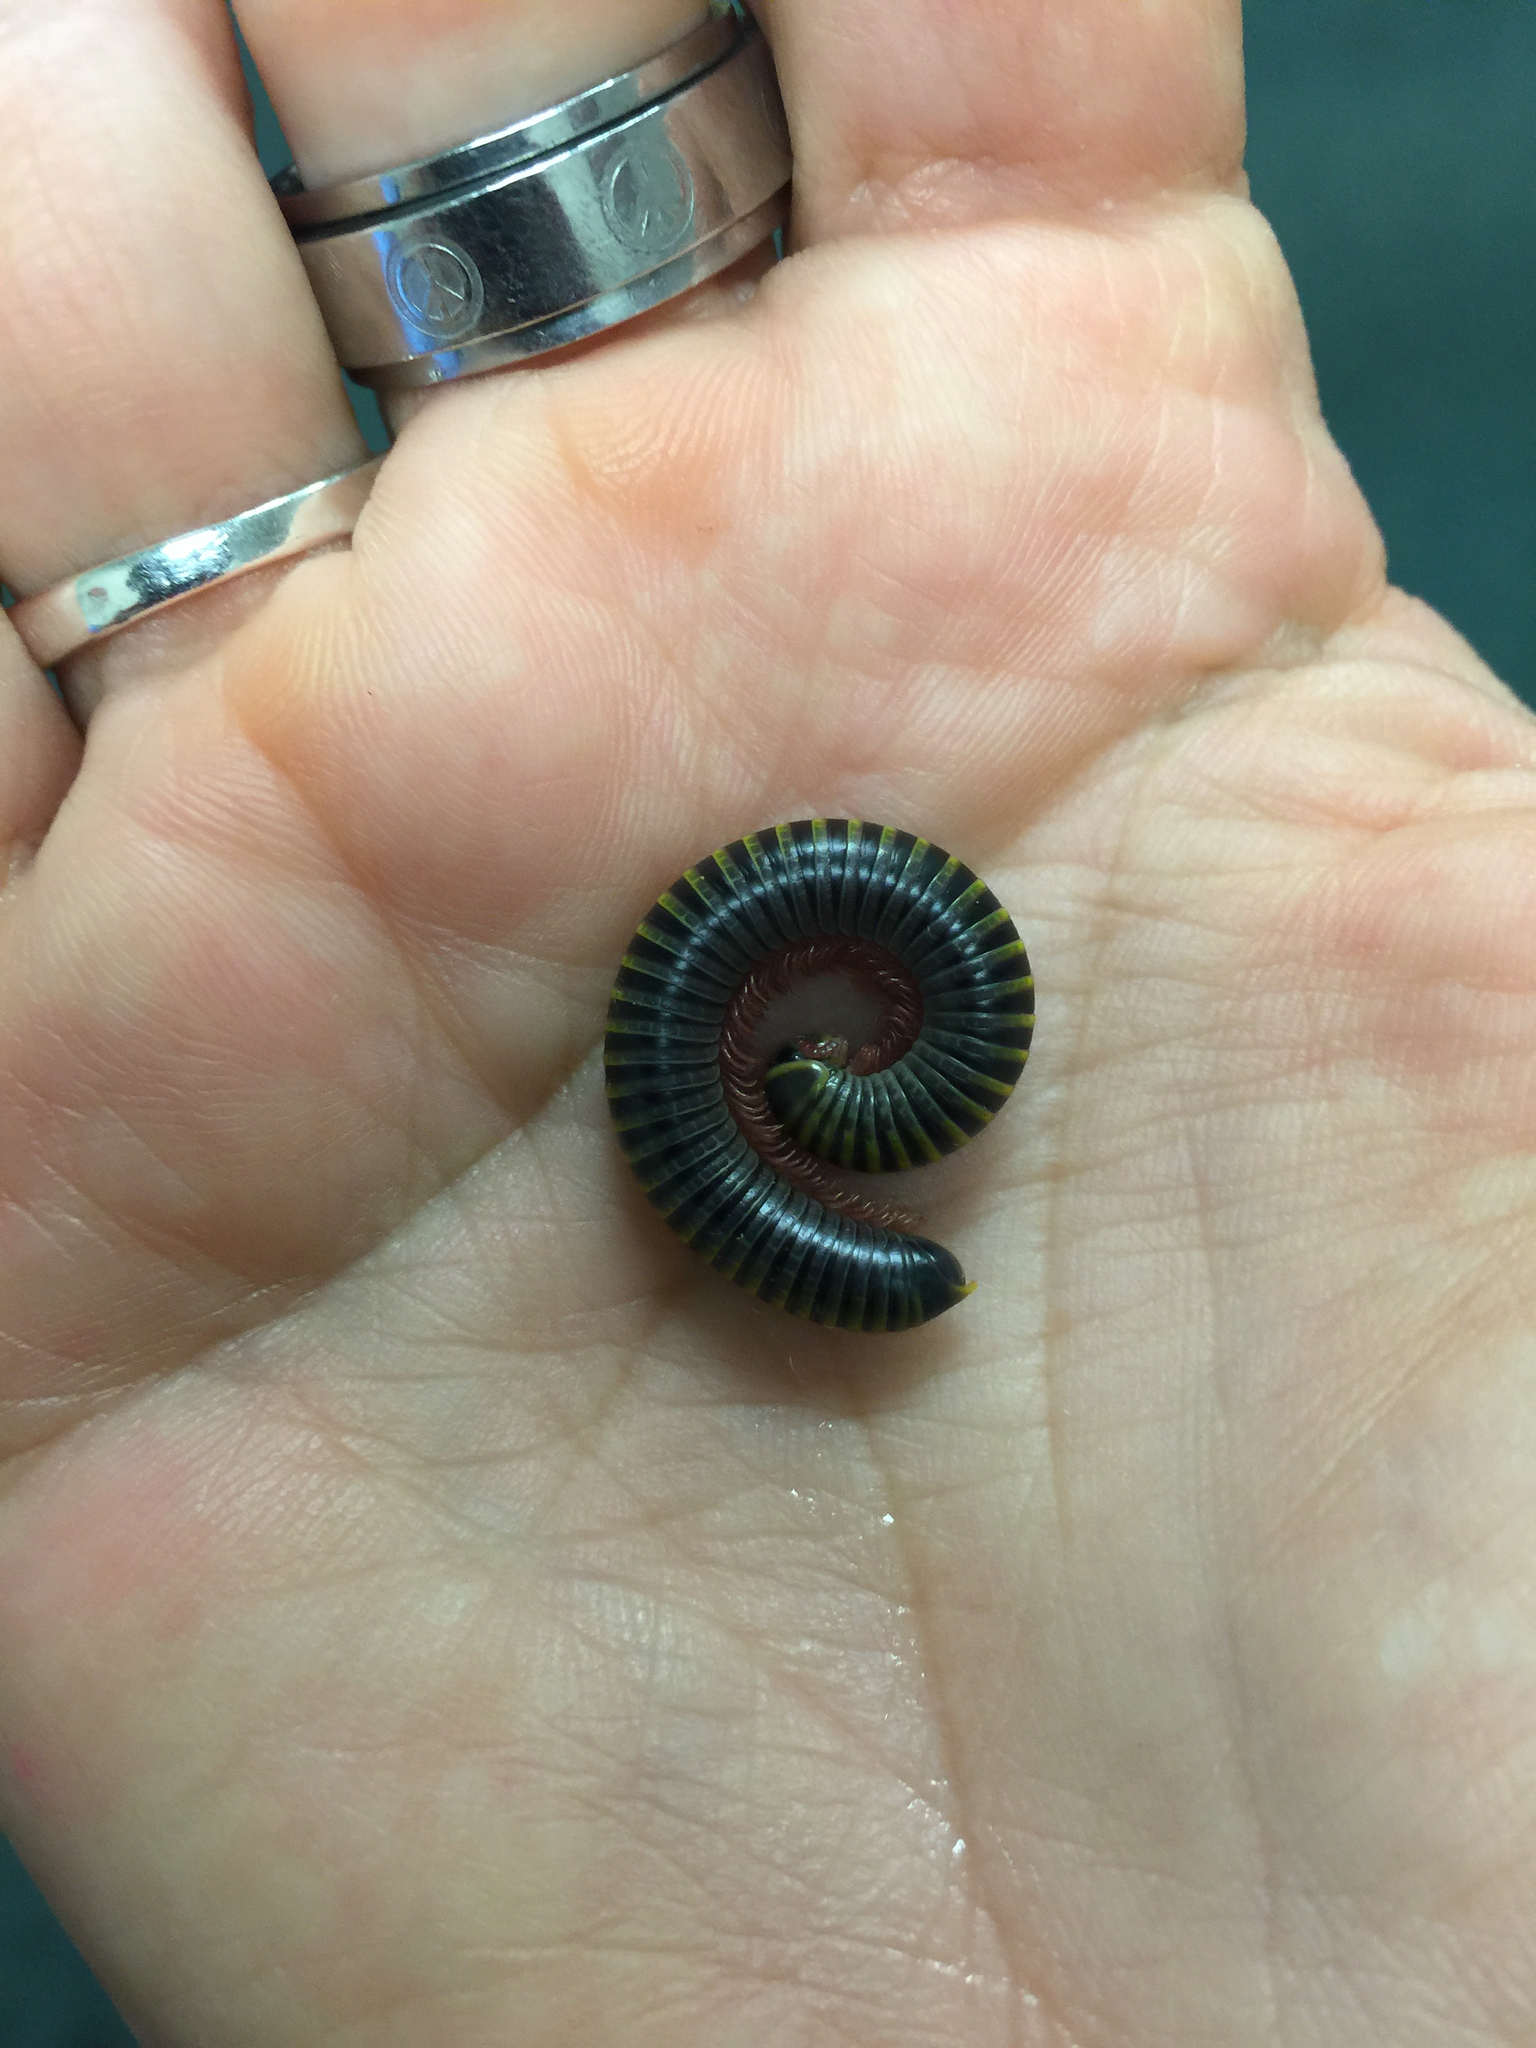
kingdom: Animalia
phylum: Arthropoda
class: Diplopoda
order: Spirobolida
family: Rhinocricidae
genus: Anadenobolus
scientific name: Anadenobolus monilicornis
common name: Caribbean millipede
